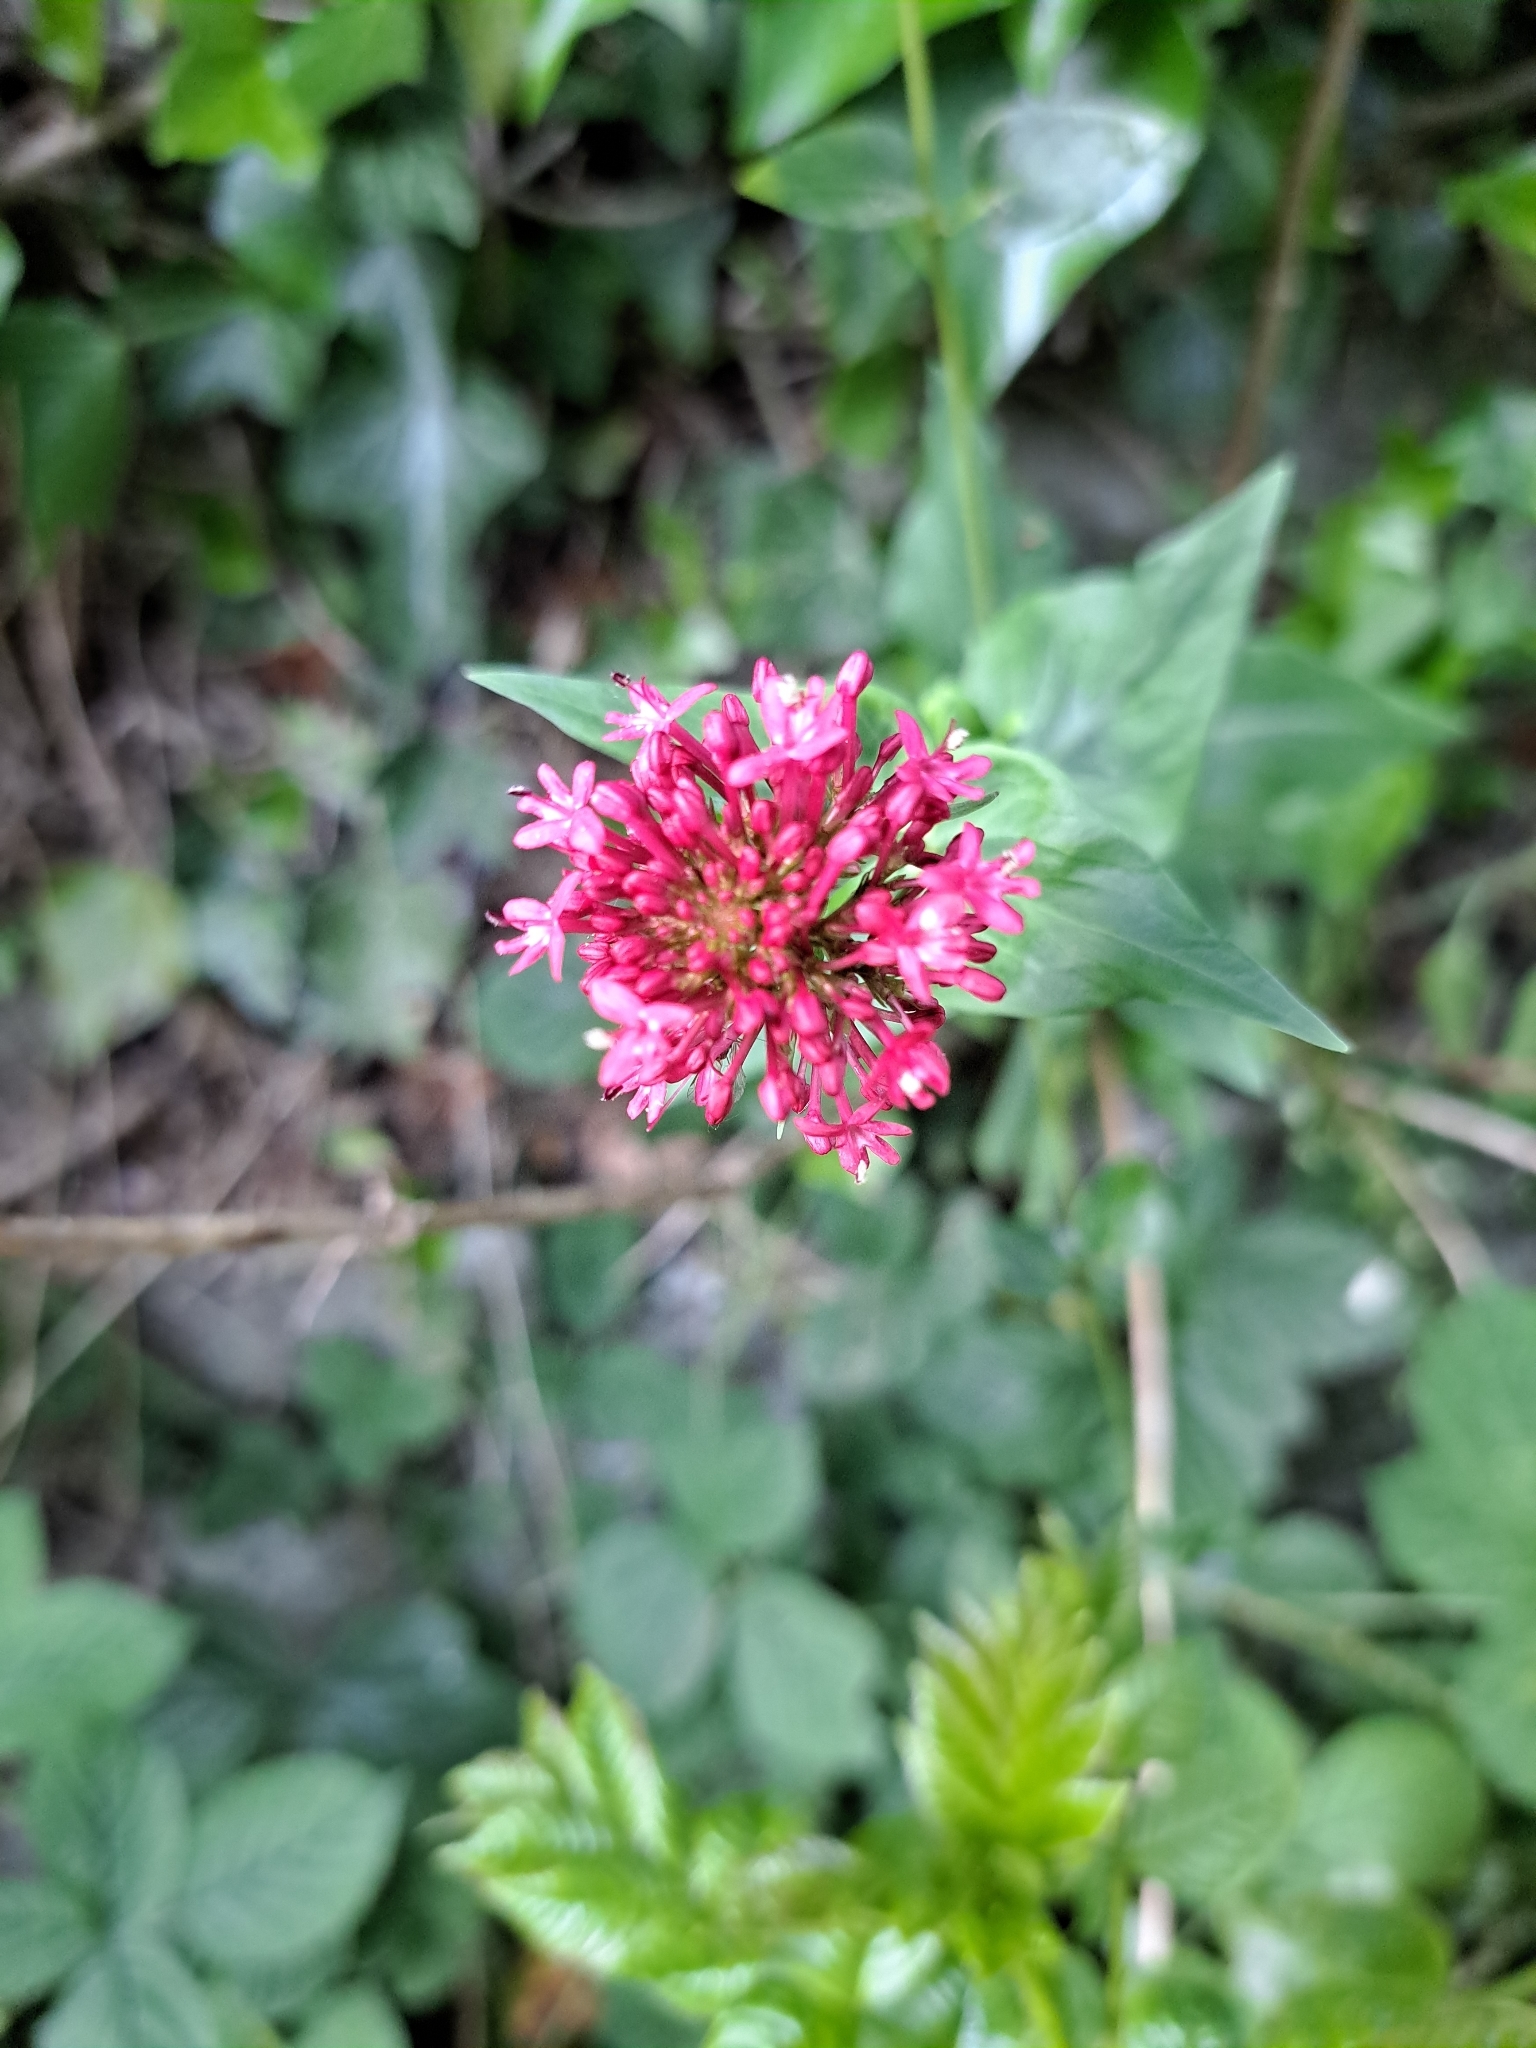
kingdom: Plantae
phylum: Tracheophyta
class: Magnoliopsida
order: Dipsacales
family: Caprifoliaceae
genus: Centranthus
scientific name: Centranthus ruber
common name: Red valerian
